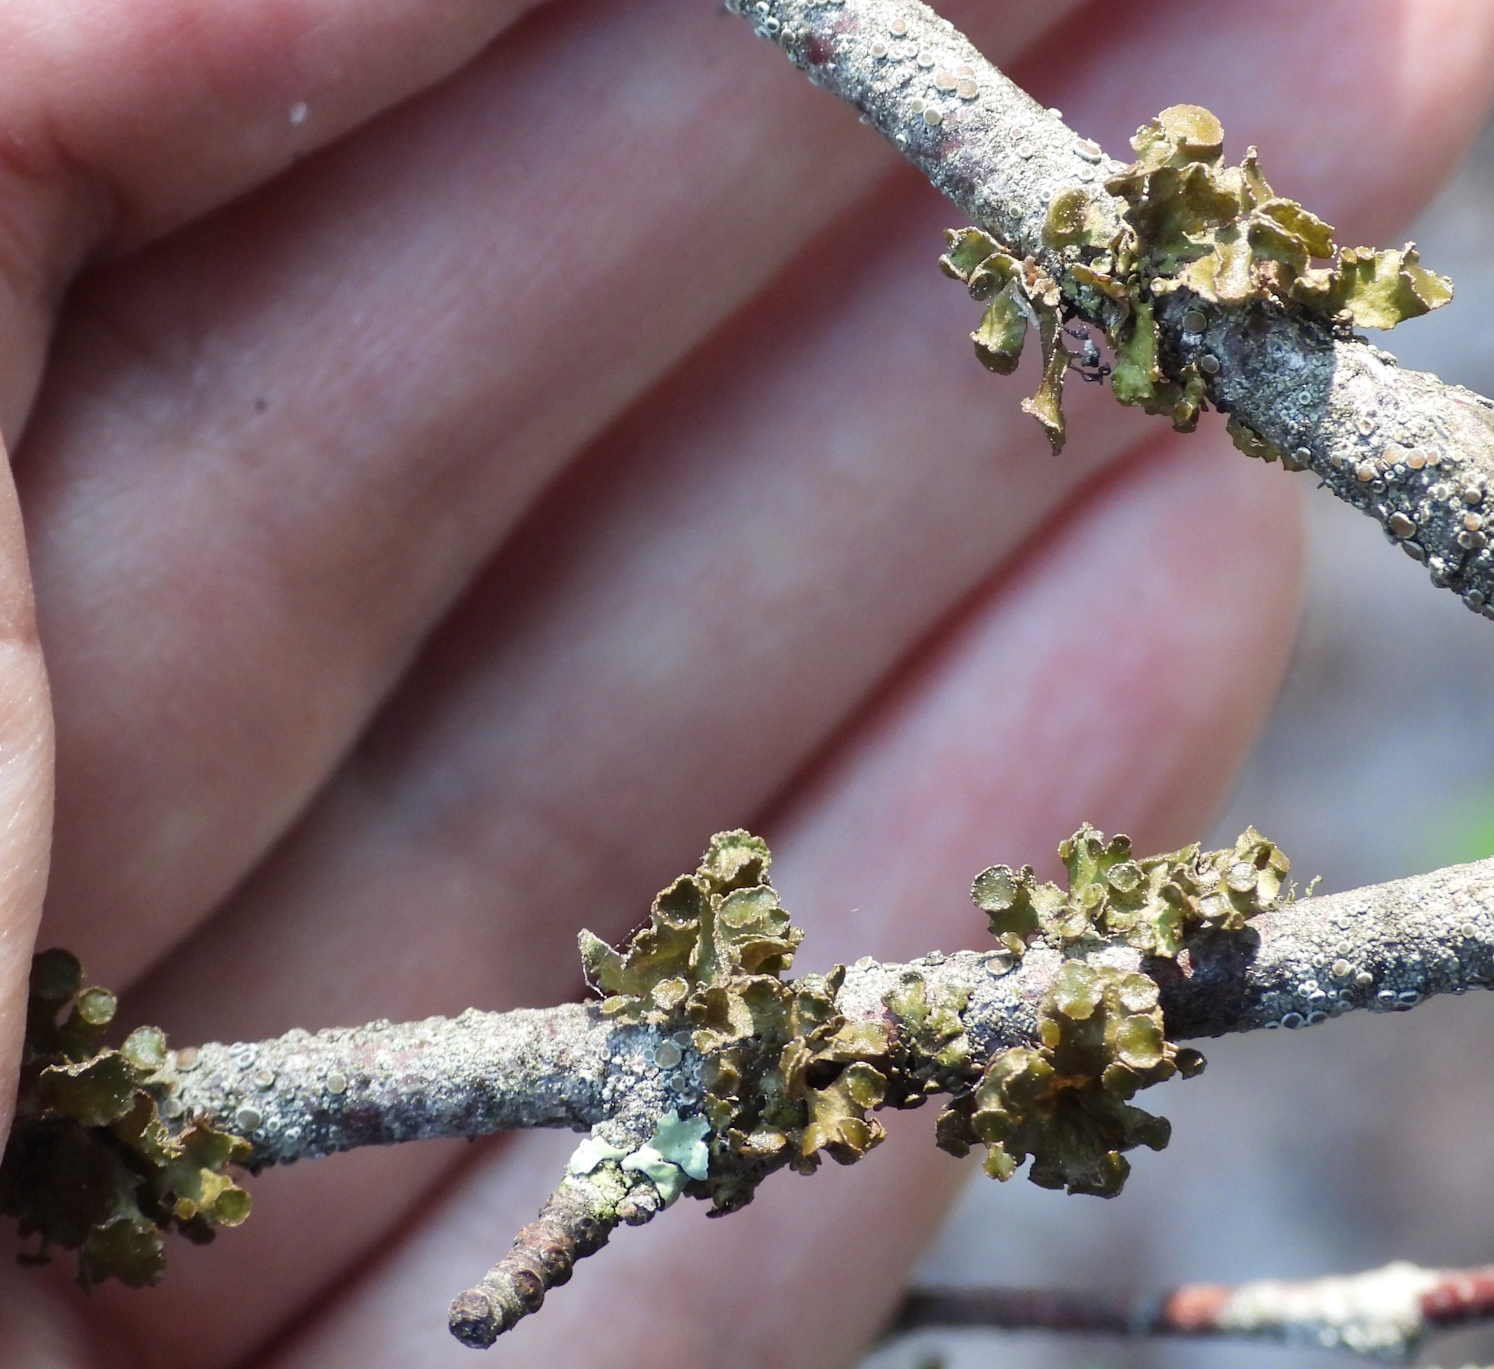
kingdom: Fungi
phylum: Ascomycota
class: Lecanoromycetes
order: Lecanorales
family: Parmeliaceae
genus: Cetraria
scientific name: Cetraria sepincola
